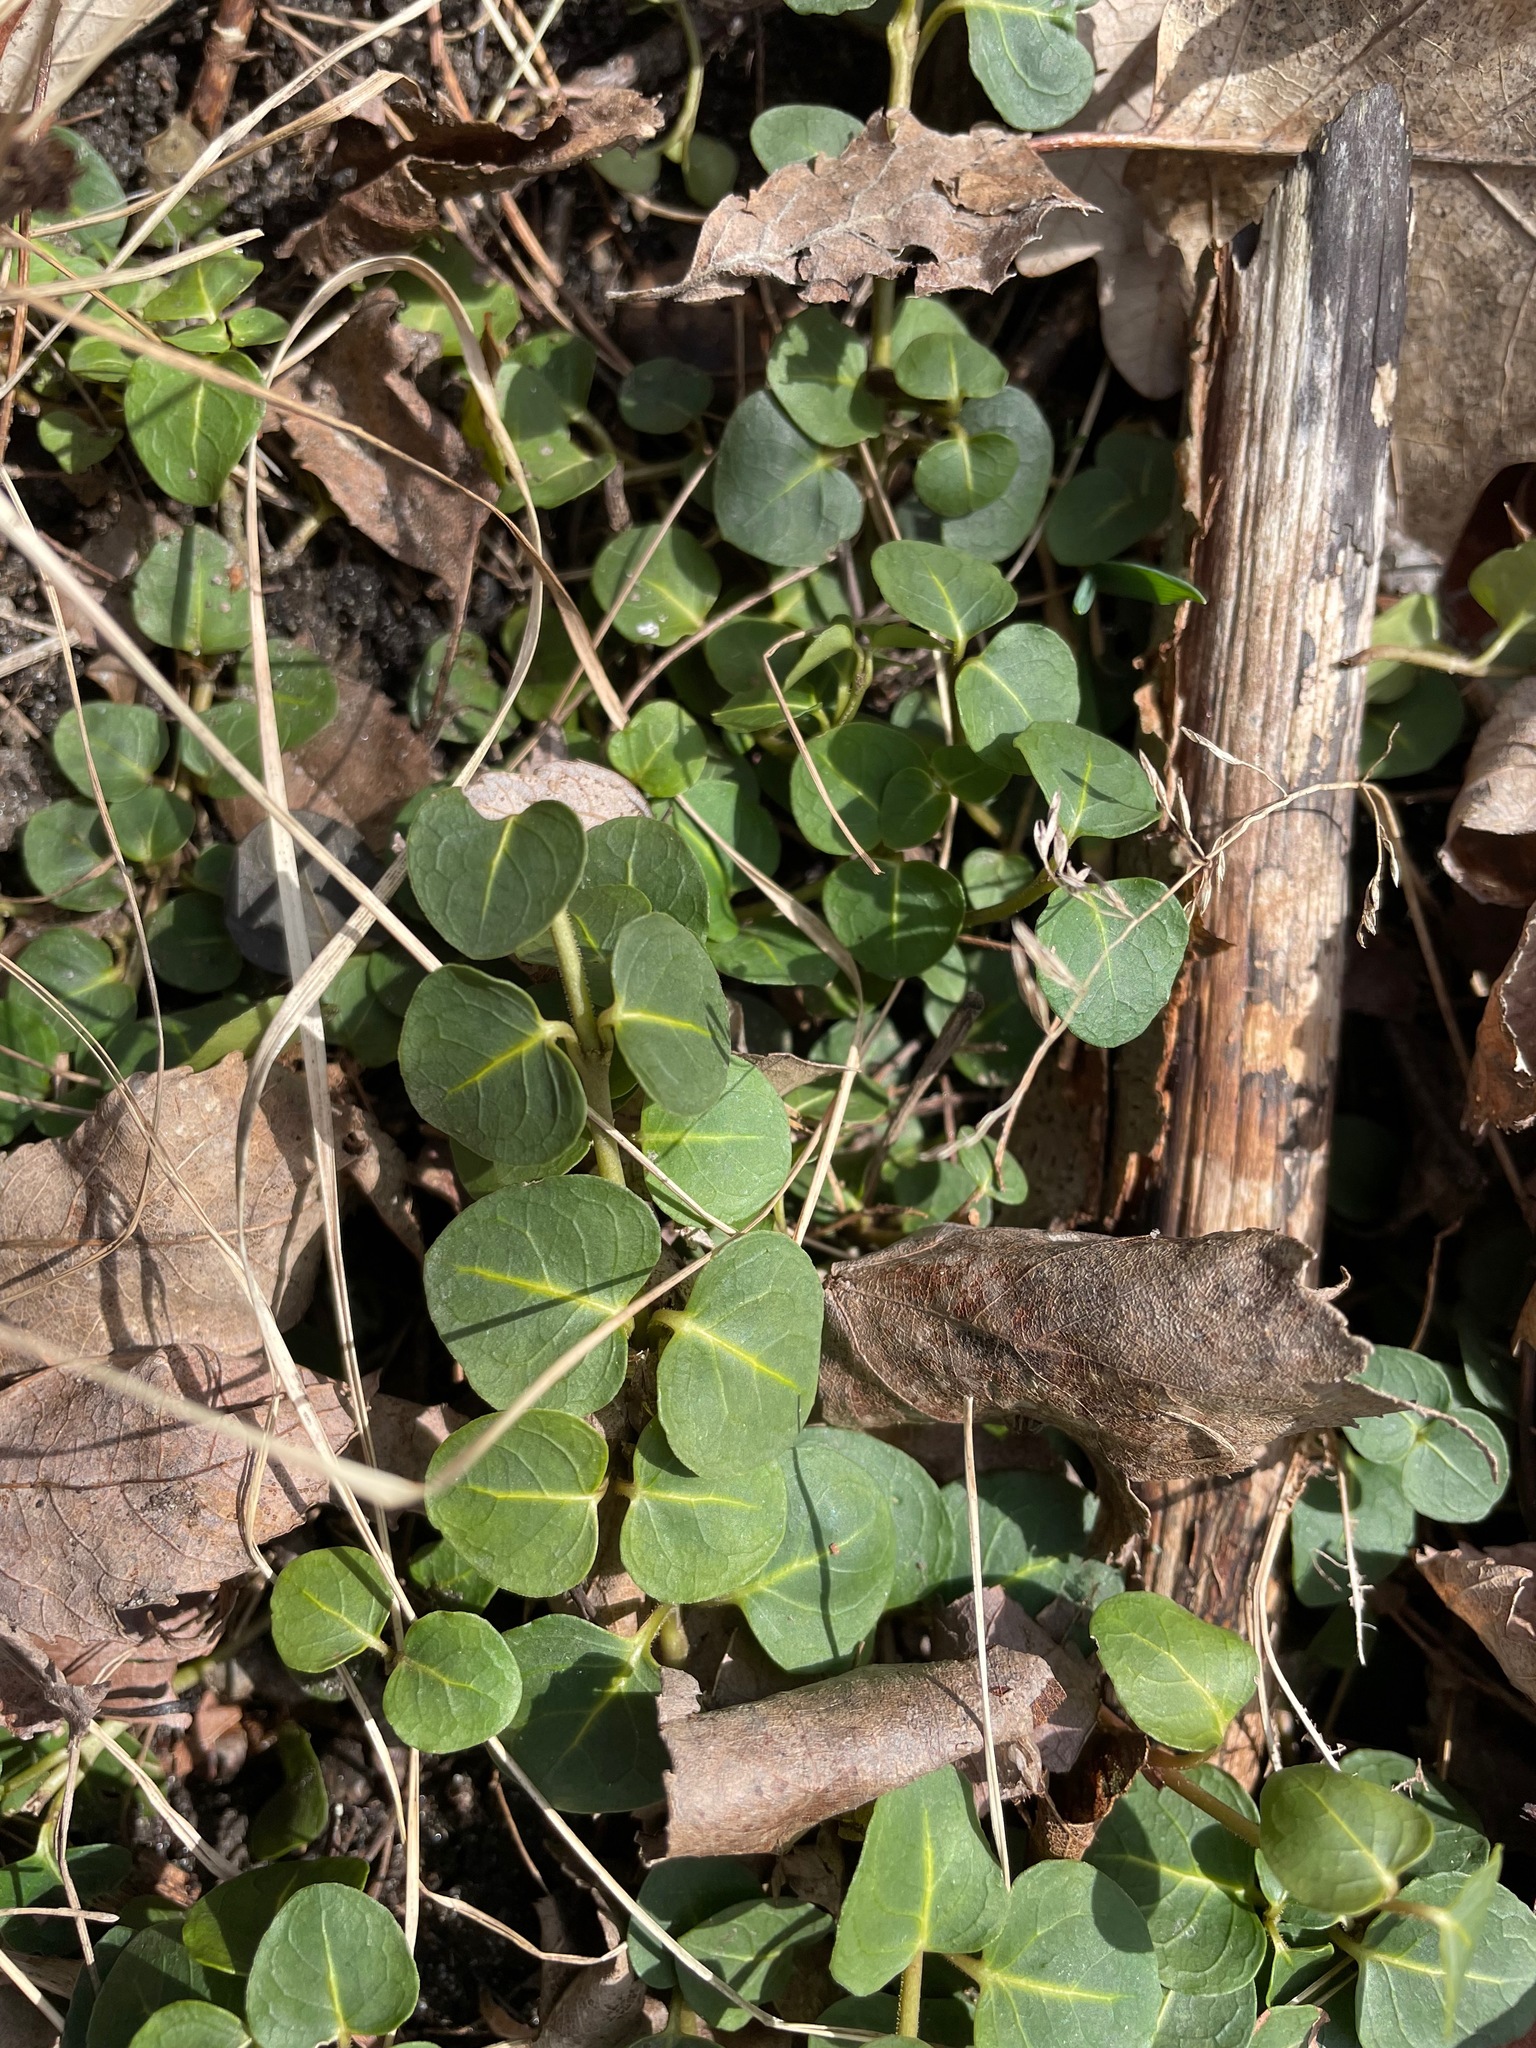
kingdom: Plantae
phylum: Tracheophyta
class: Magnoliopsida
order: Gentianales
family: Rubiaceae
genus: Mitchella
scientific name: Mitchella repens
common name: Partridge-berry
